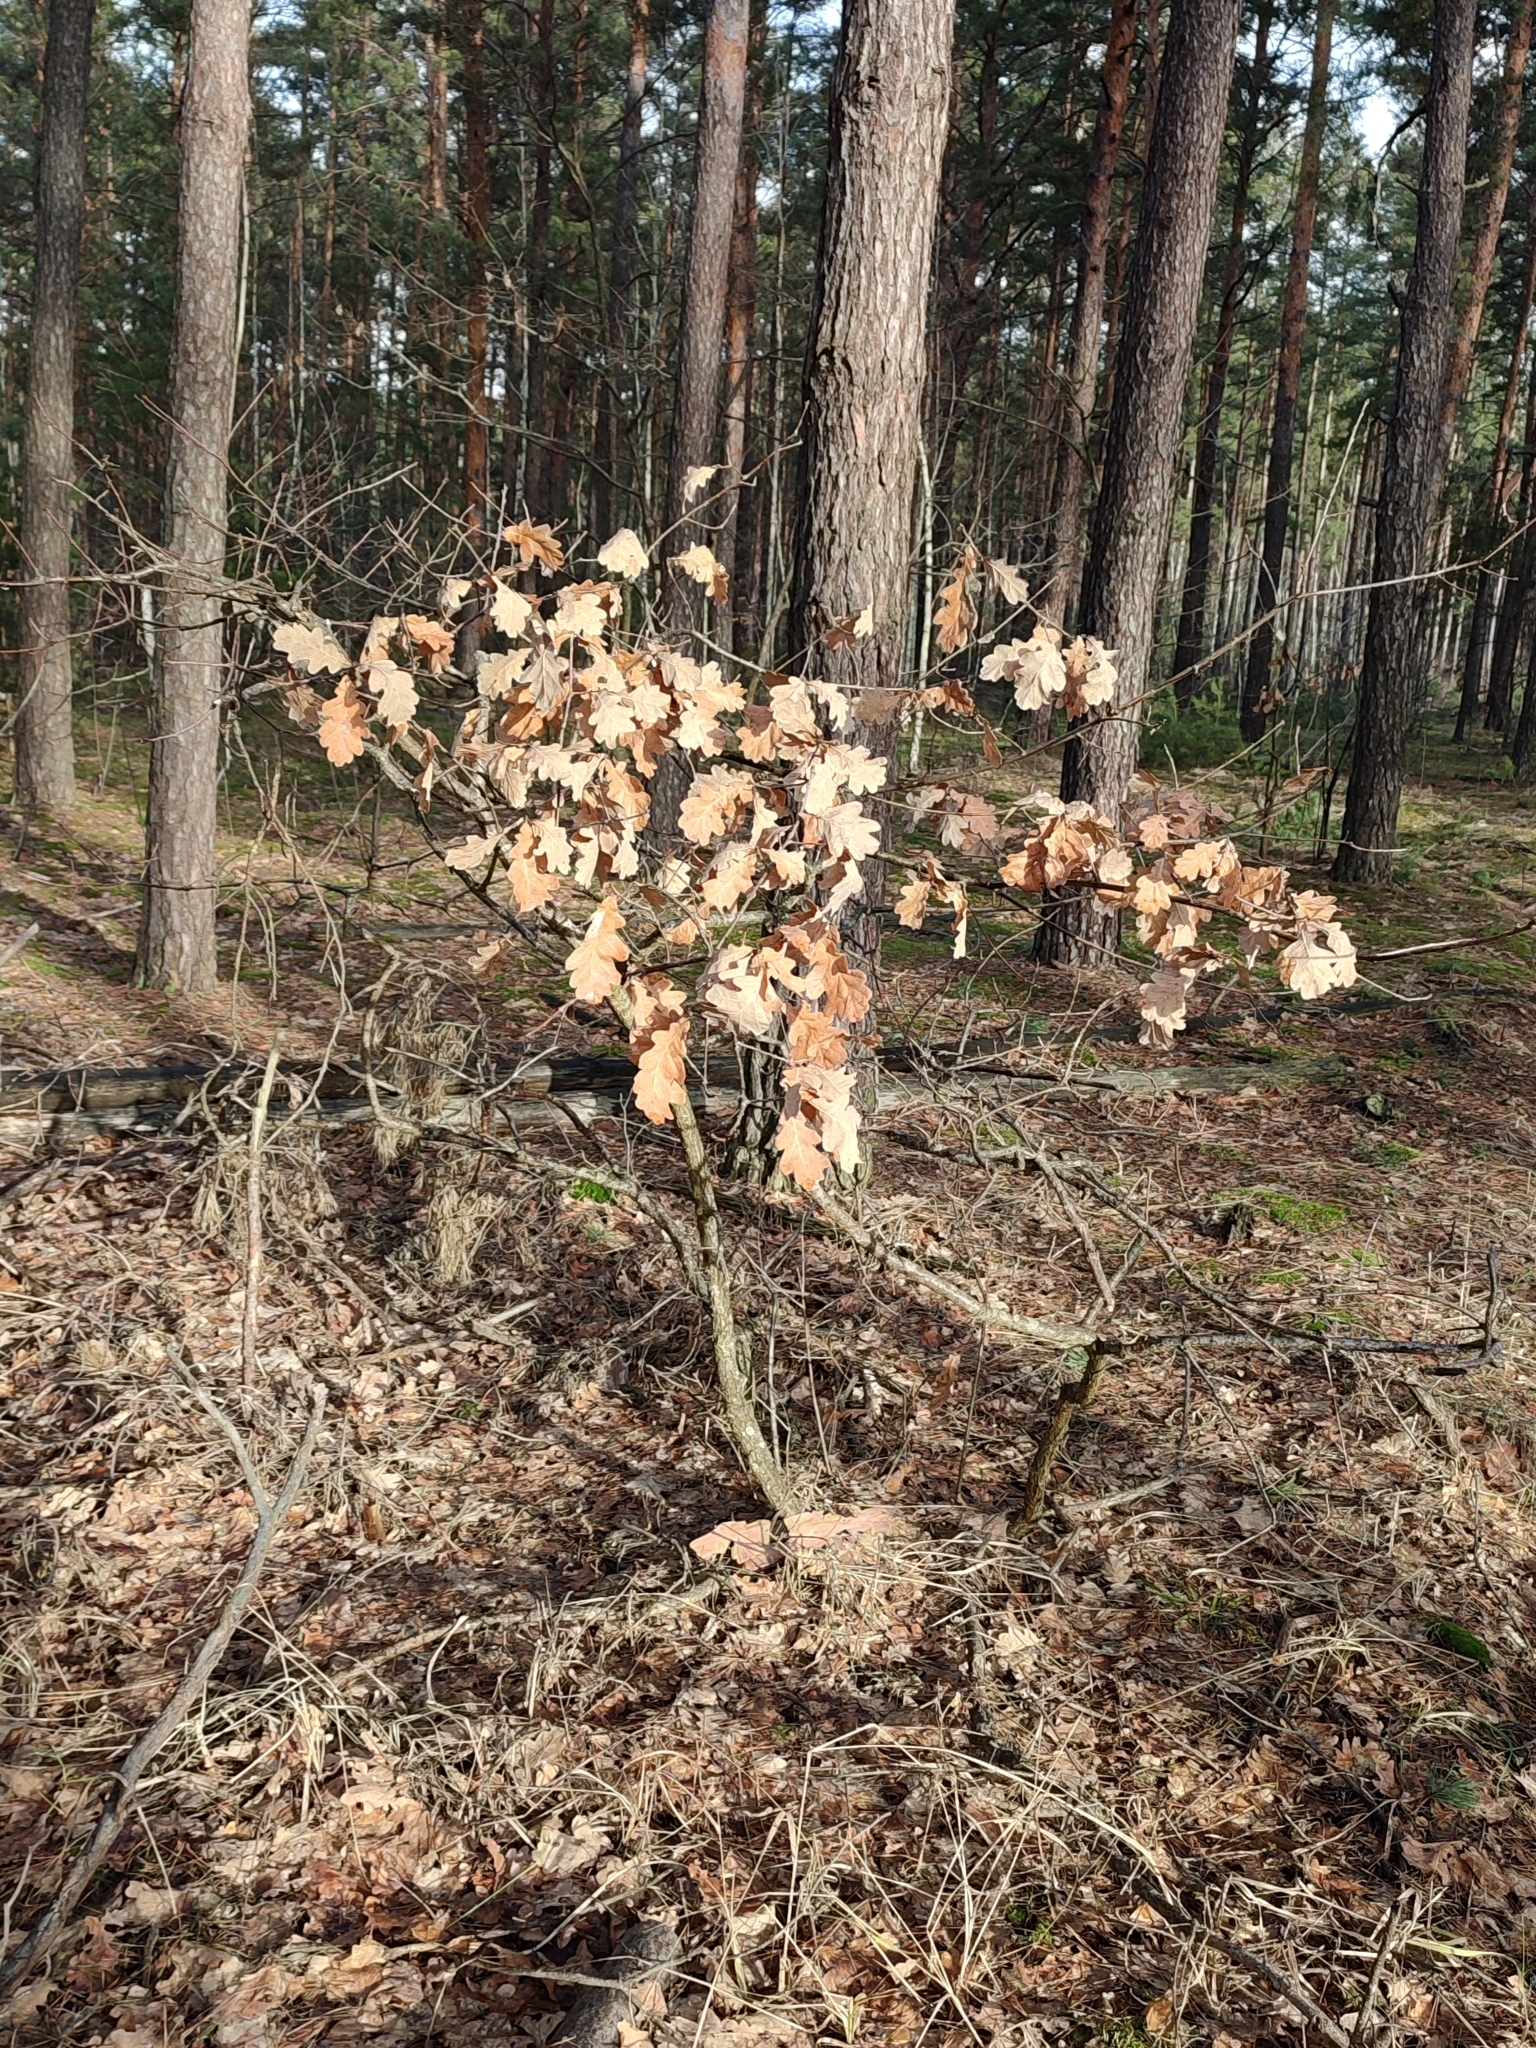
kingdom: Plantae
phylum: Tracheophyta
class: Magnoliopsida
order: Fagales
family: Fagaceae
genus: Quercus
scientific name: Quercus robur
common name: Pedunculate oak
